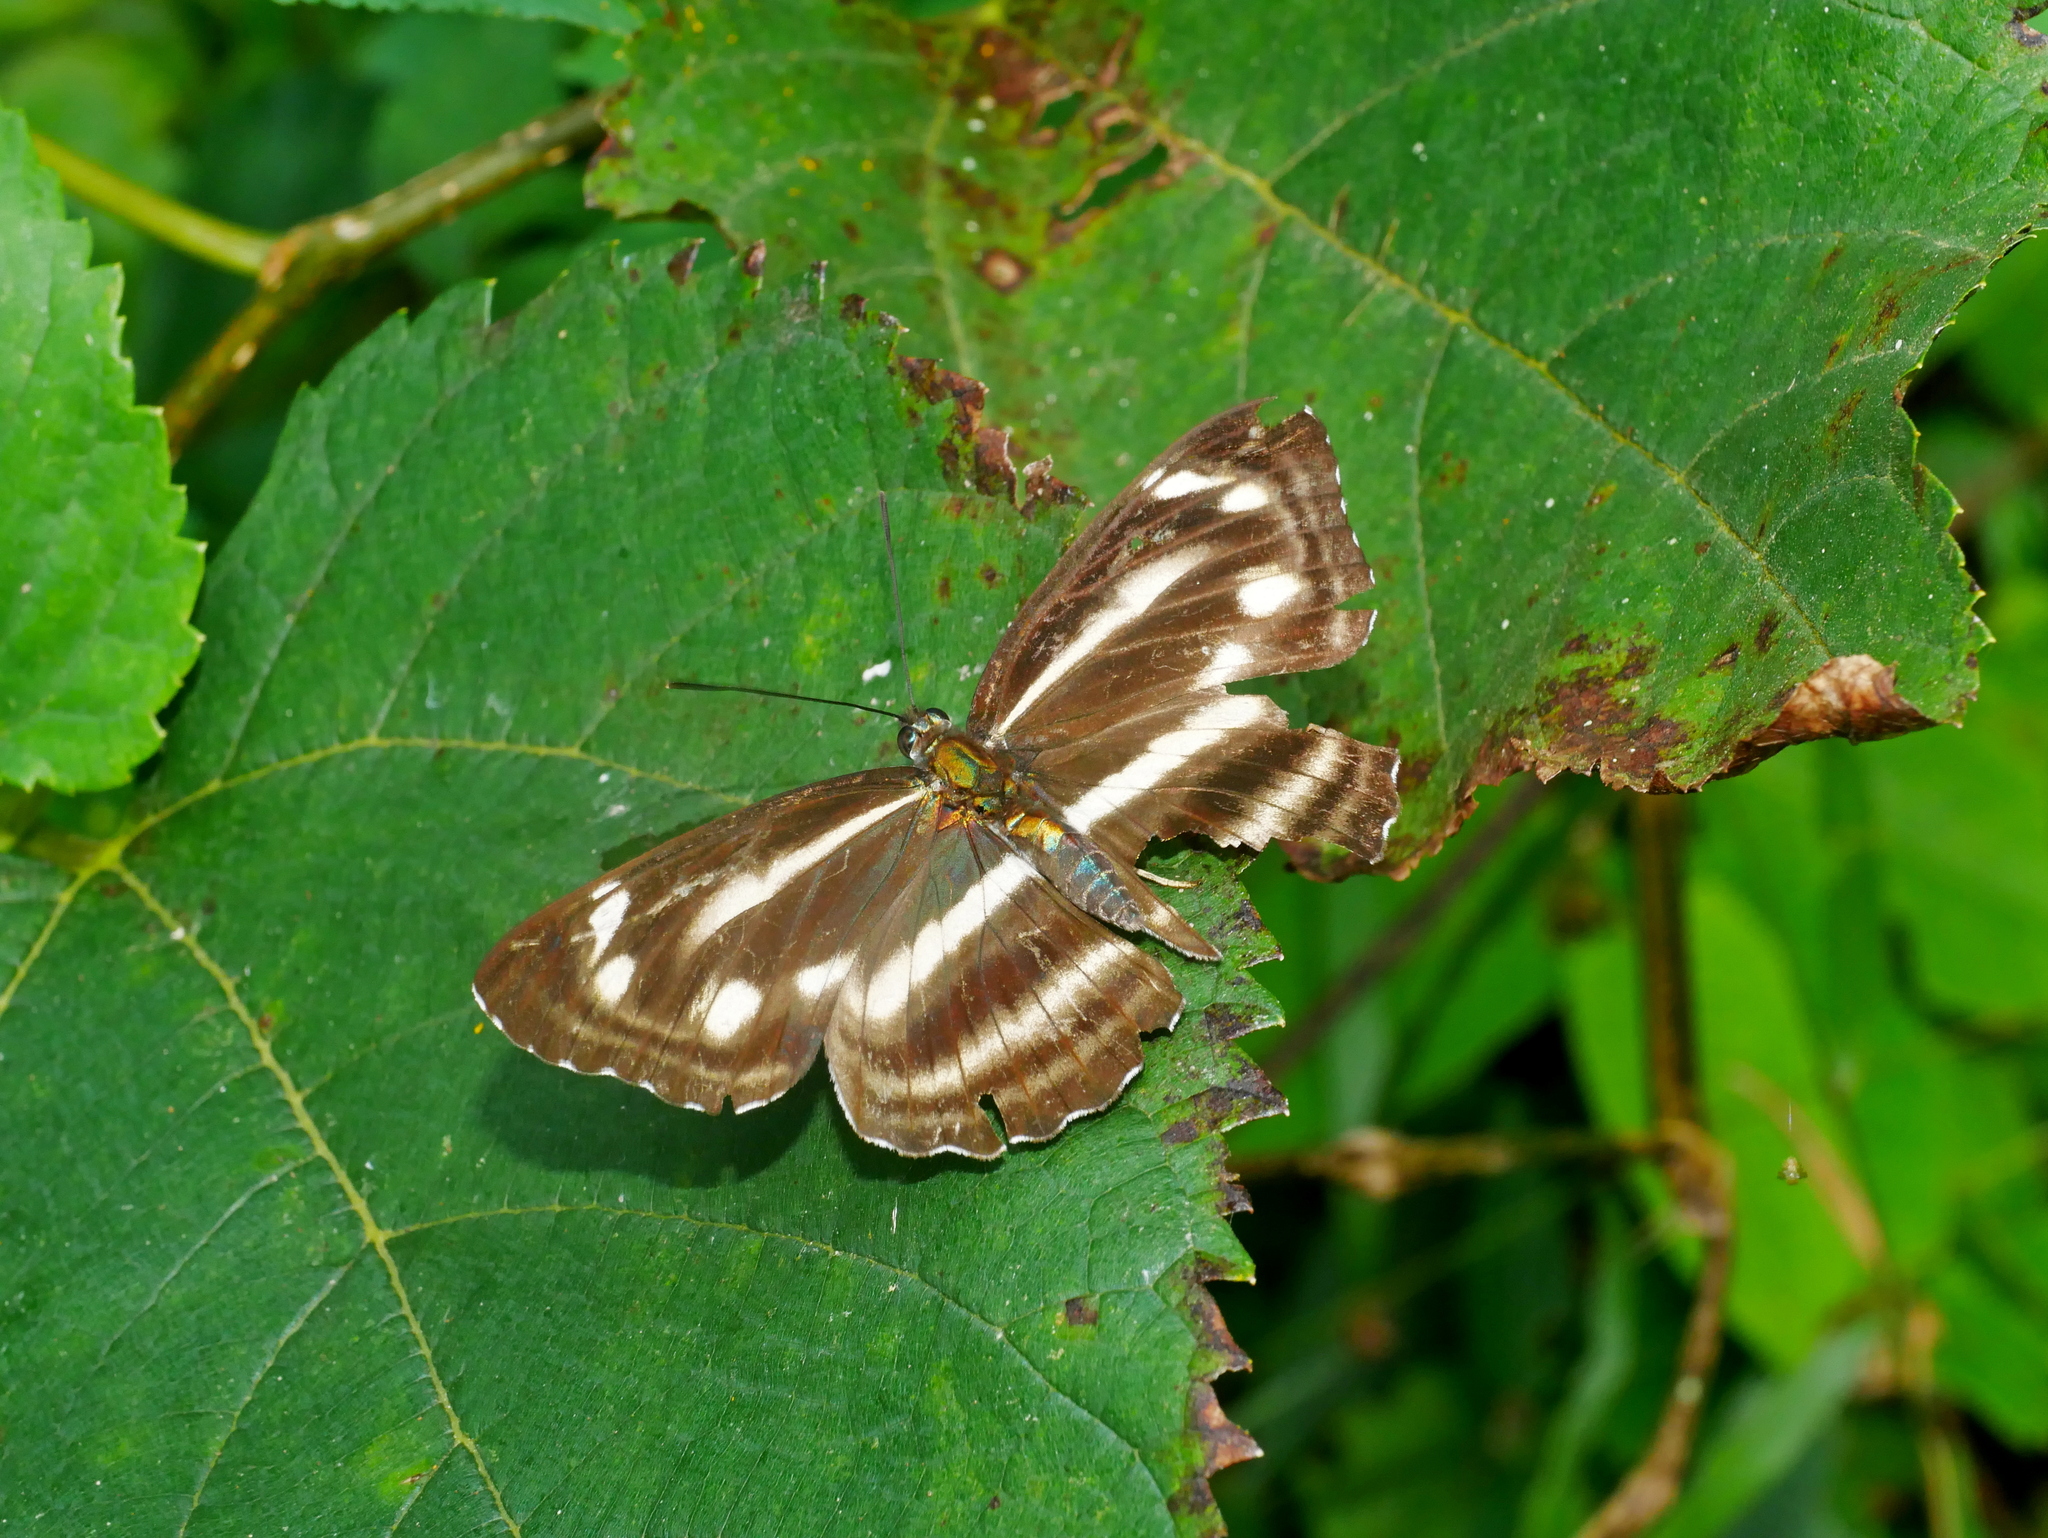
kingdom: Animalia
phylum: Arthropoda
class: Insecta
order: Lepidoptera
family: Nymphalidae
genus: Neptis
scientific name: Neptis taiwana
